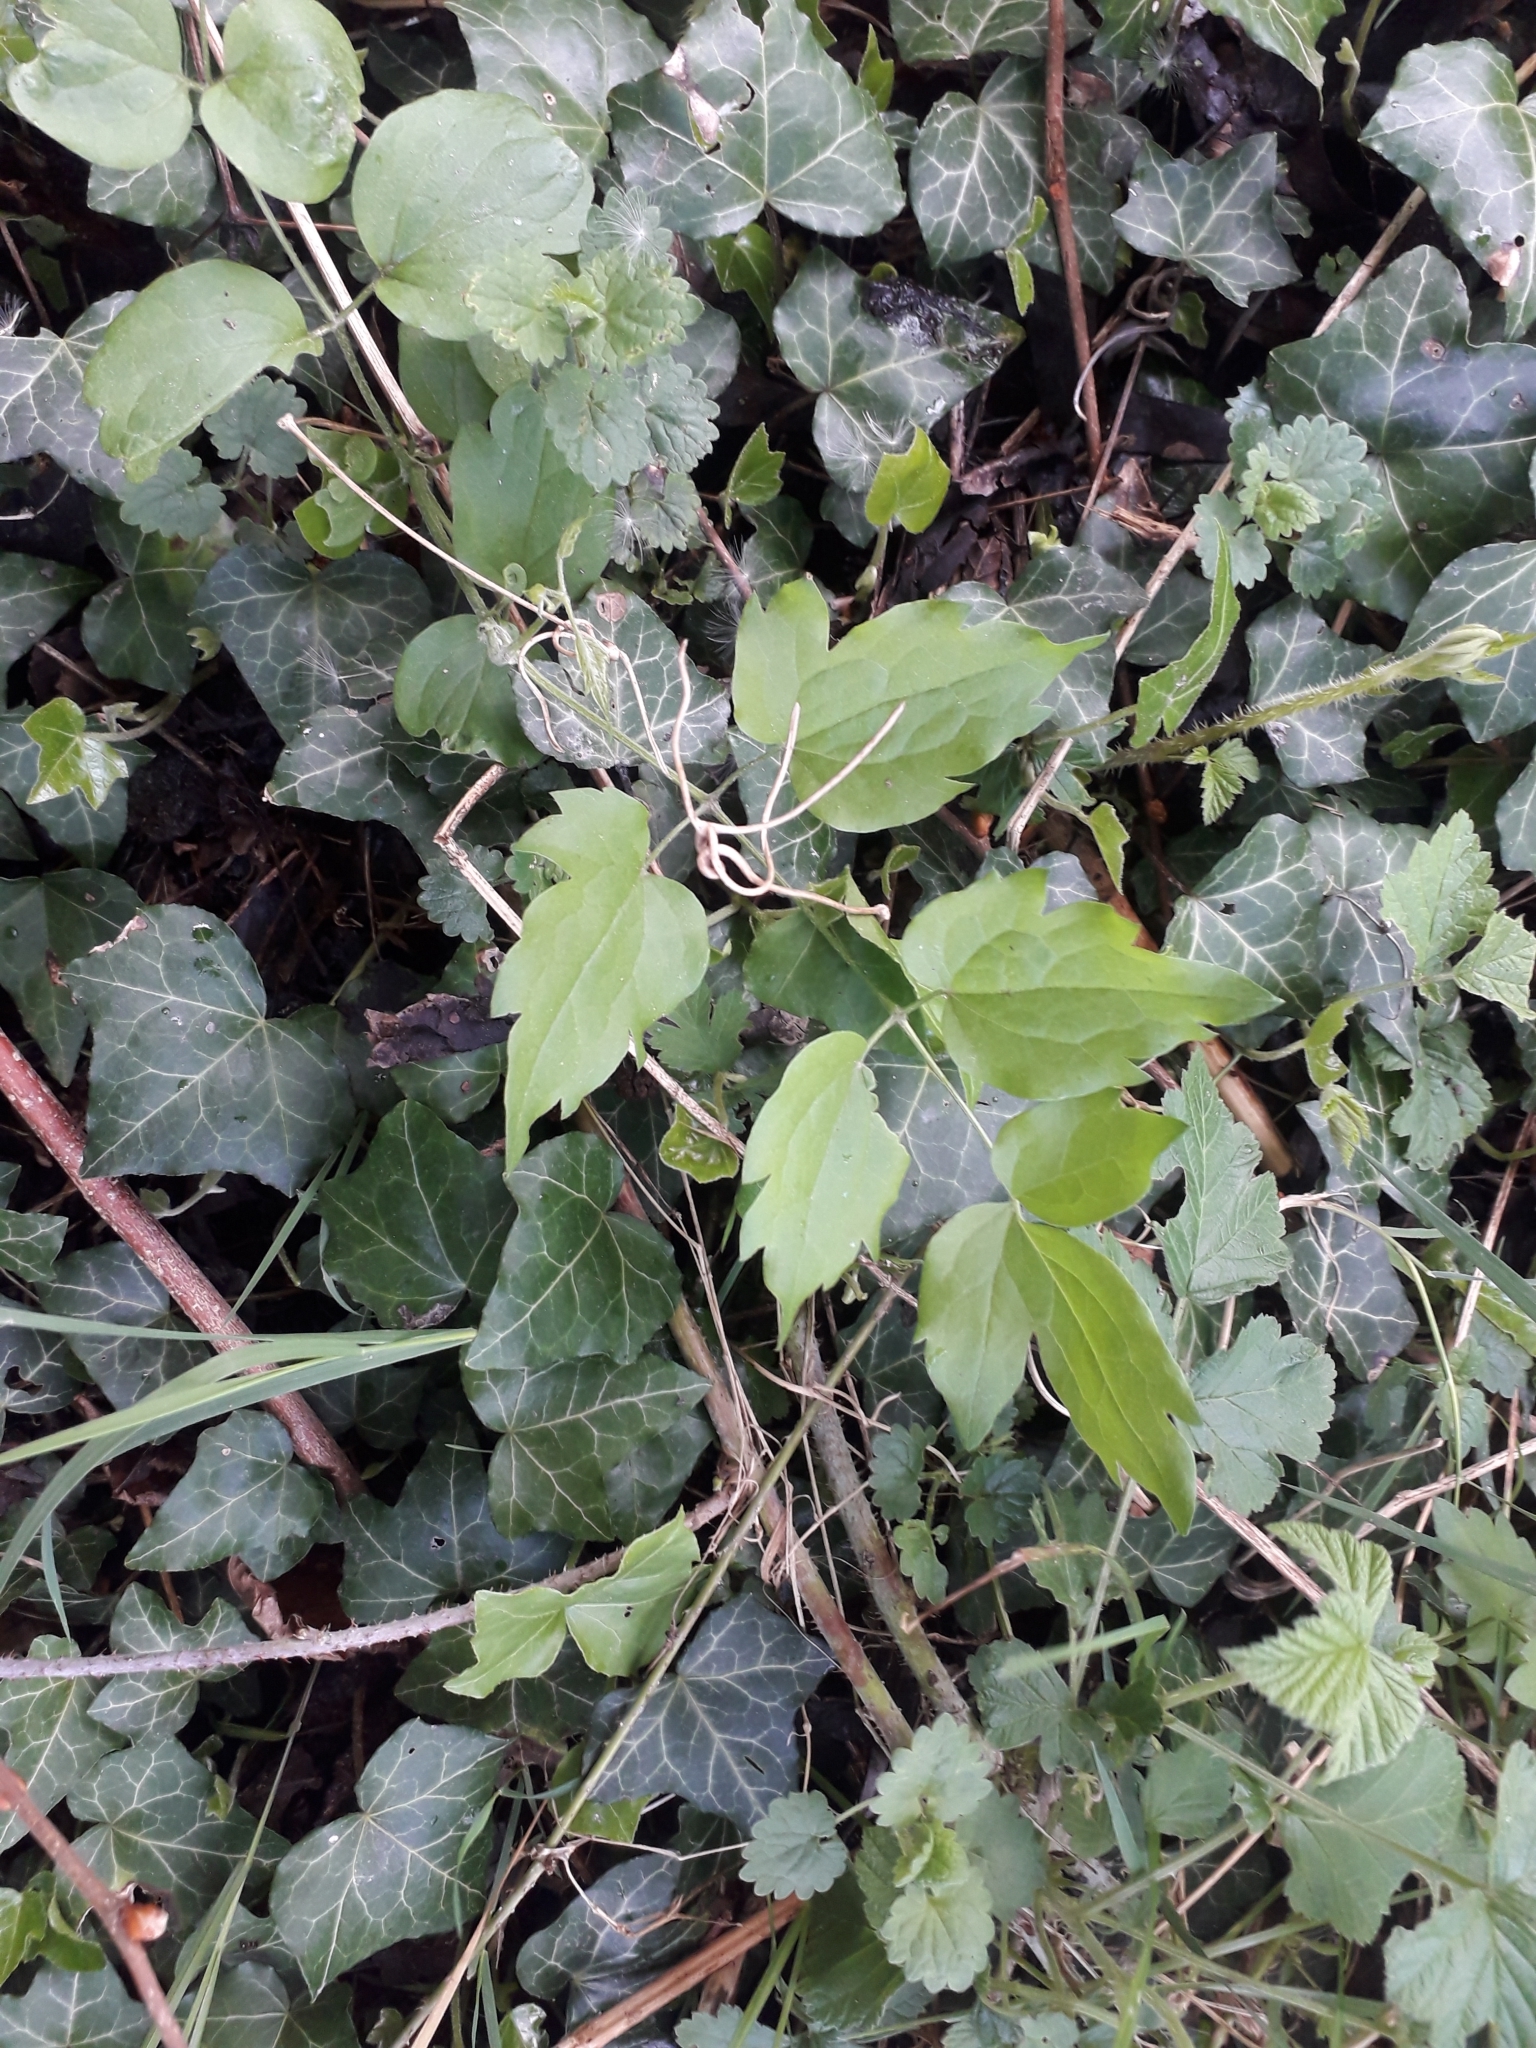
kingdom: Plantae
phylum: Tracheophyta
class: Magnoliopsida
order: Ranunculales
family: Ranunculaceae
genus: Clematis
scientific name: Clematis vitalba
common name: Evergreen clematis
